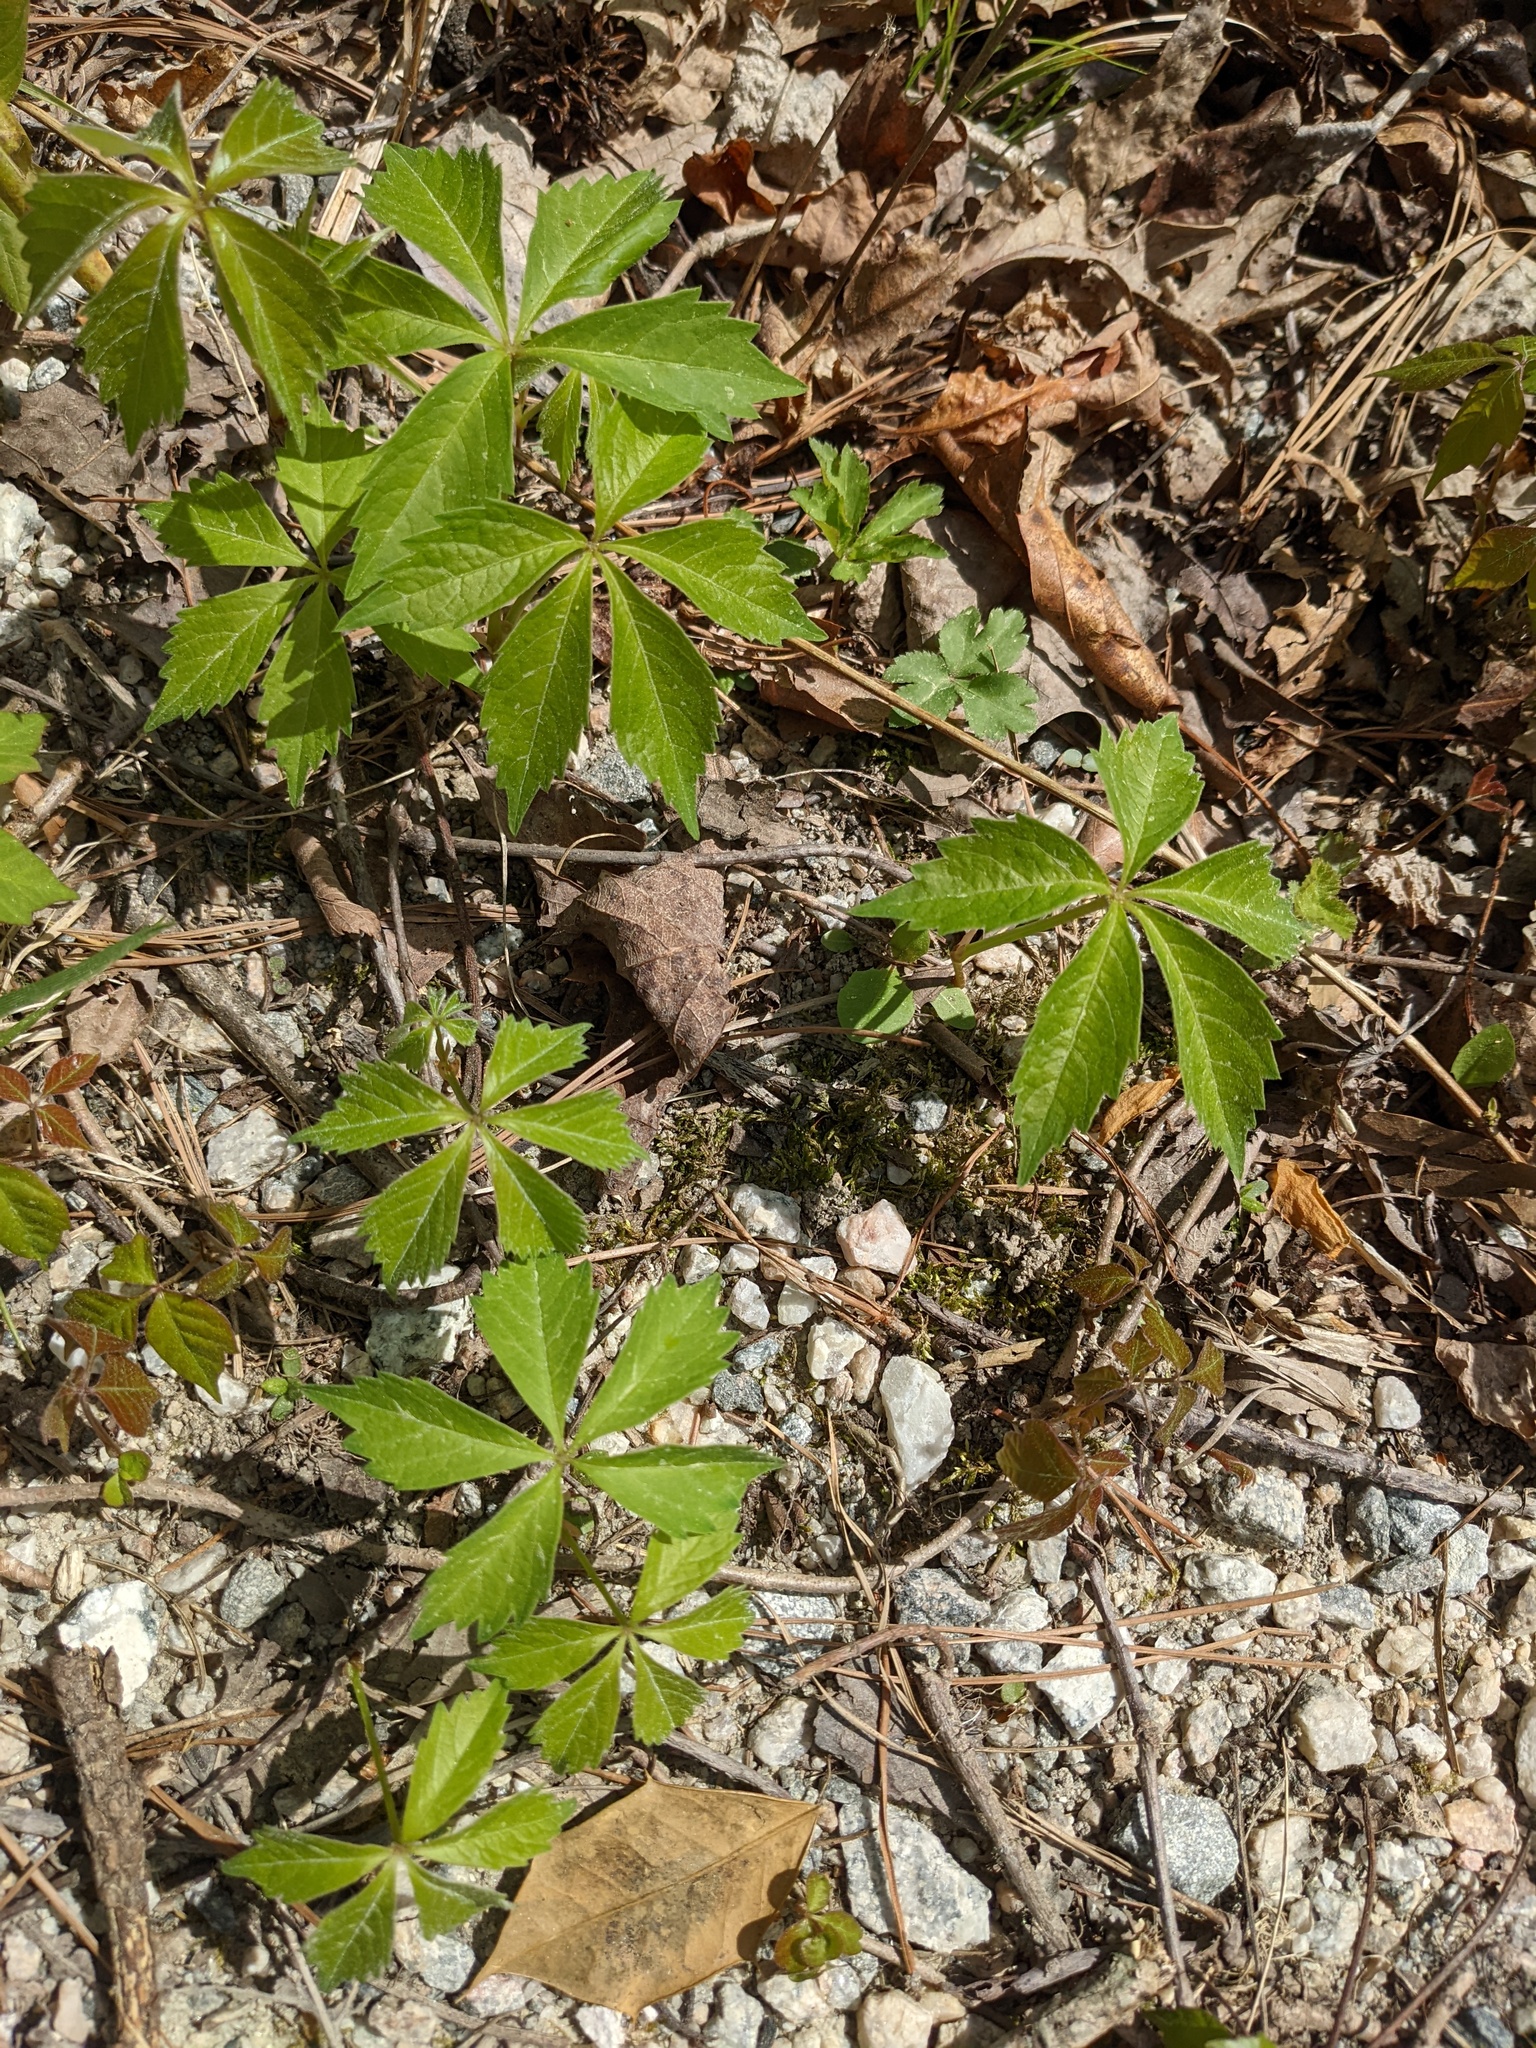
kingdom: Plantae
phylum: Tracheophyta
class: Magnoliopsida
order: Vitales
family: Vitaceae
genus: Parthenocissus
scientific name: Parthenocissus quinquefolia
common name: Virginia-creeper
